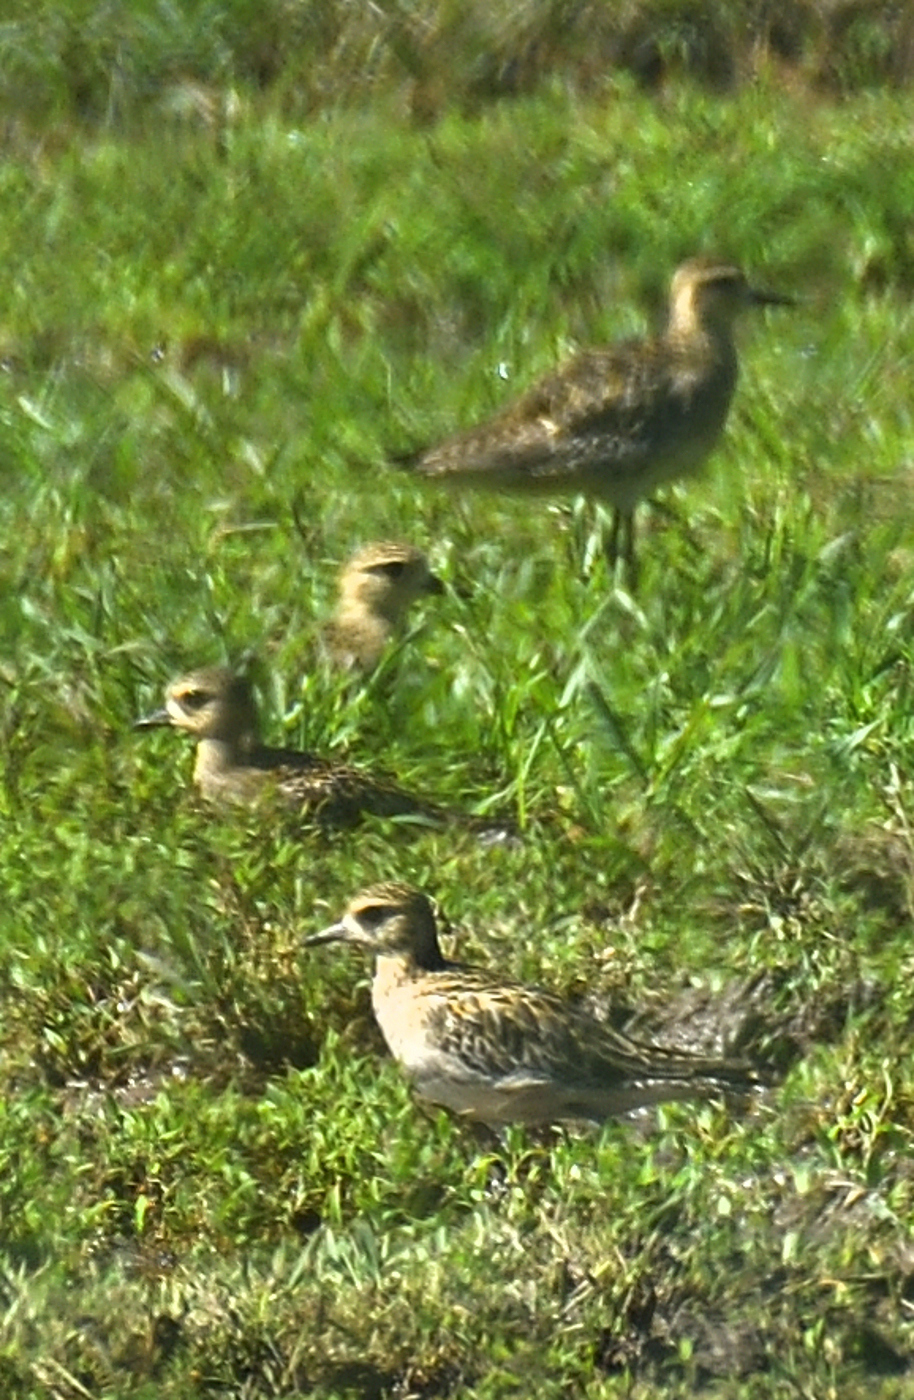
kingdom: Animalia
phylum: Chordata
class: Aves
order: Charadriiformes
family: Charadriidae
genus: Pluvialis
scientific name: Pluvialis fulva
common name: Pacific golden plover
